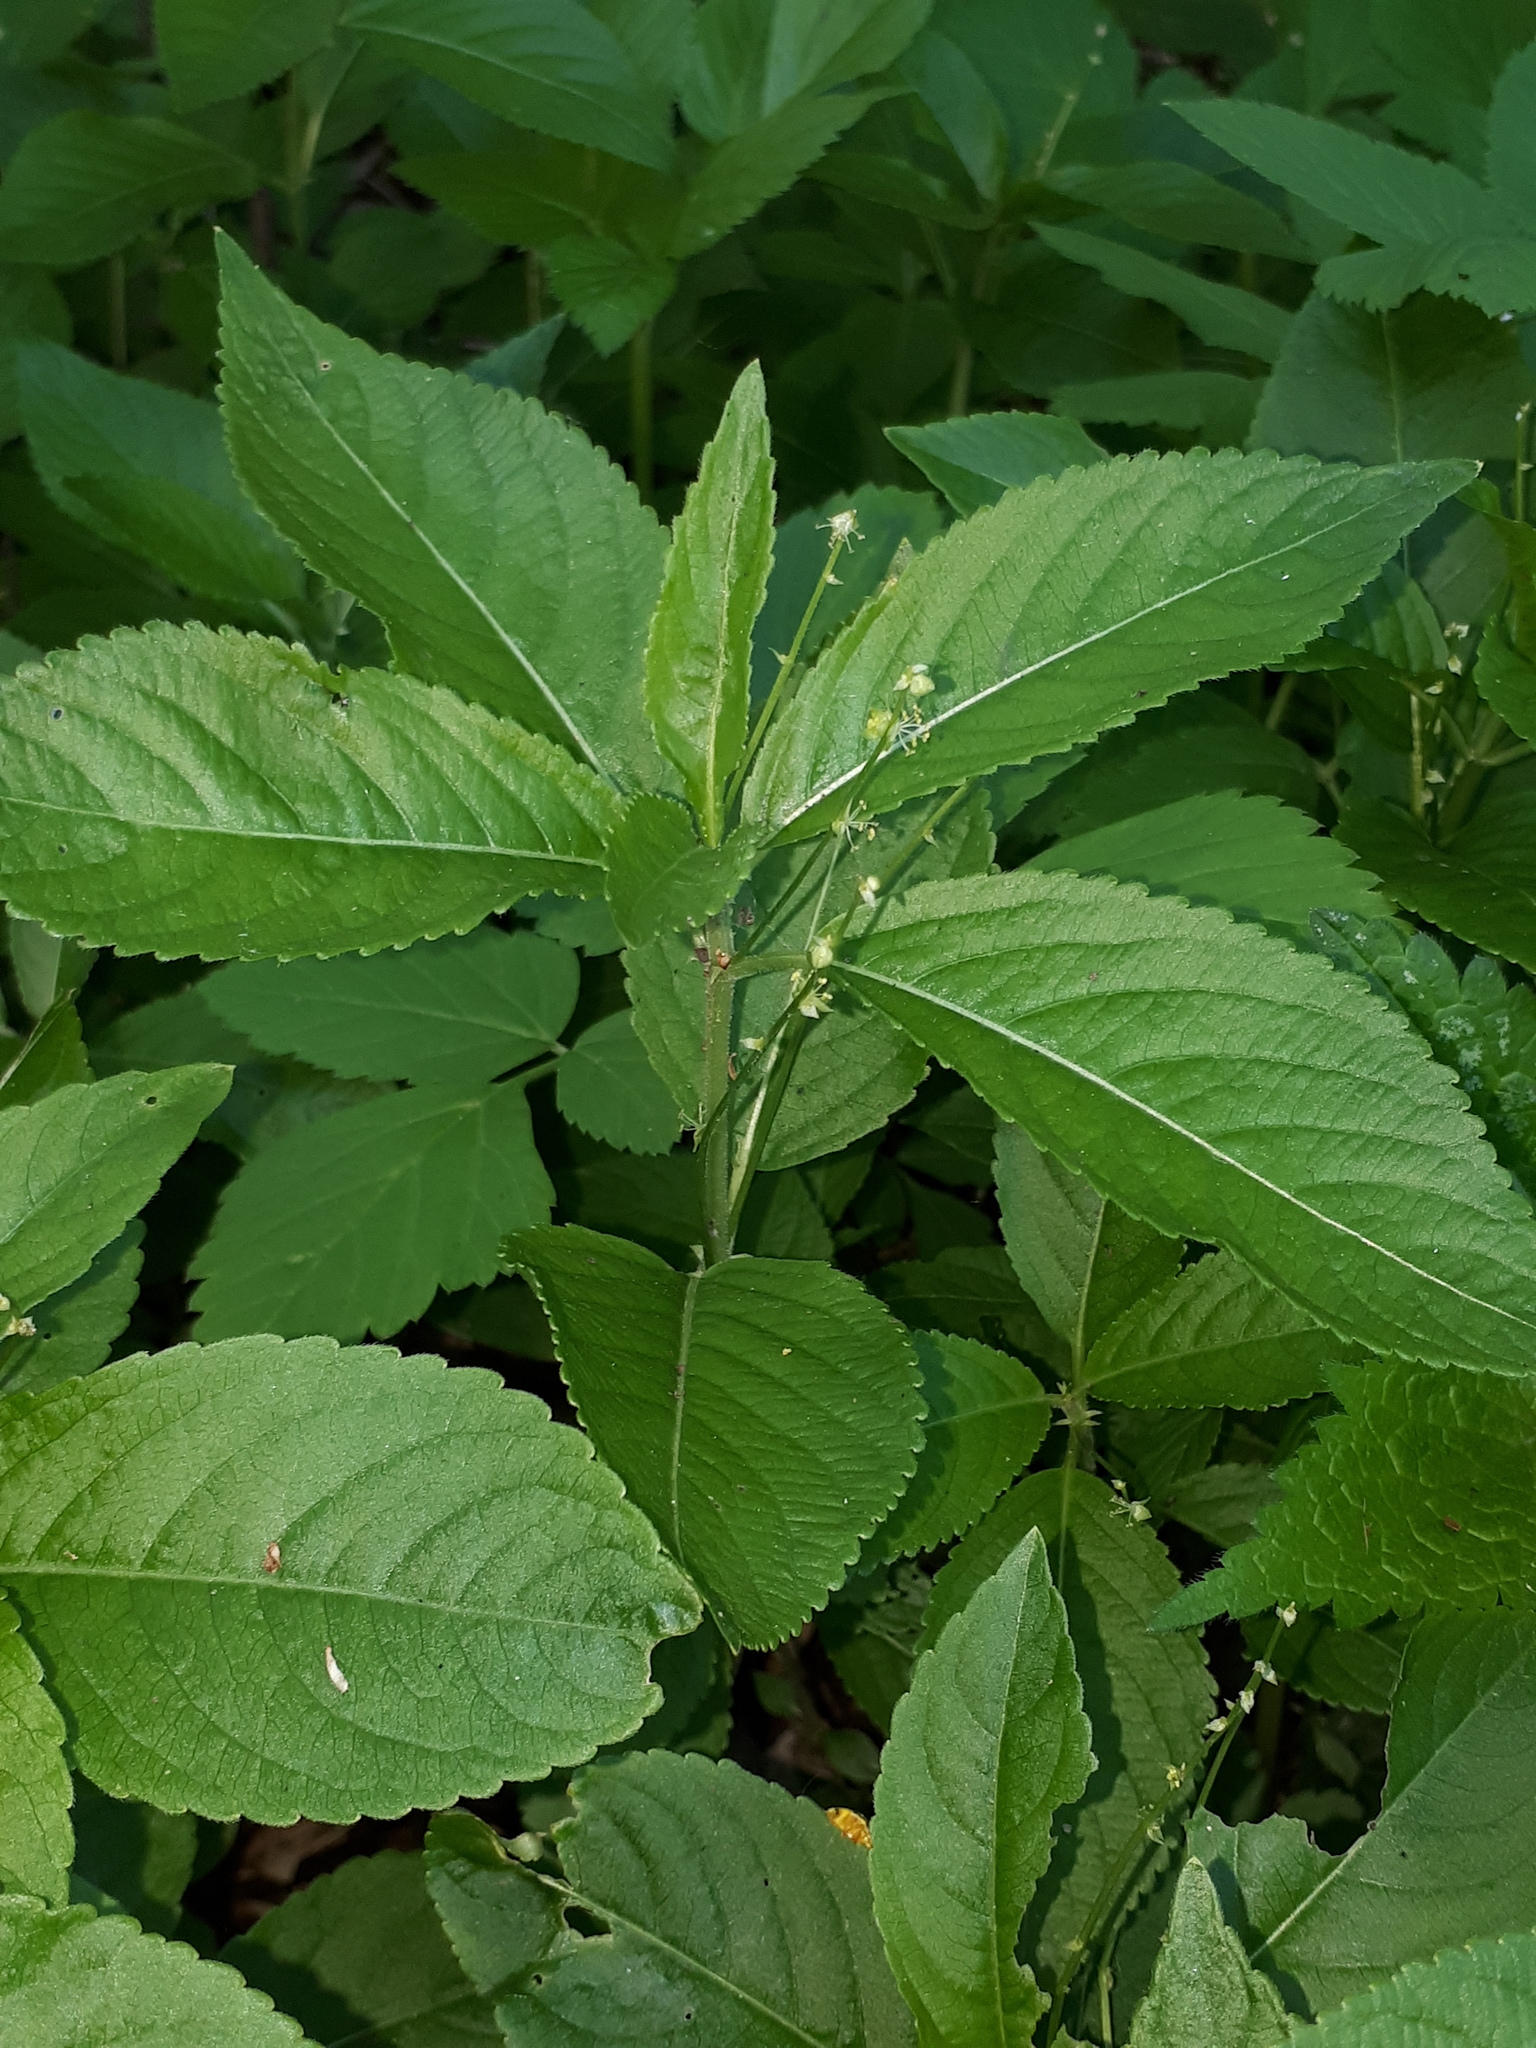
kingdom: Plantae
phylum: Tracheophyta
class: Magnoliopsida
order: Malpighiales
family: Euphorbiaceae
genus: Mercurialis
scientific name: Mercurialis perennis
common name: Dog mercury
